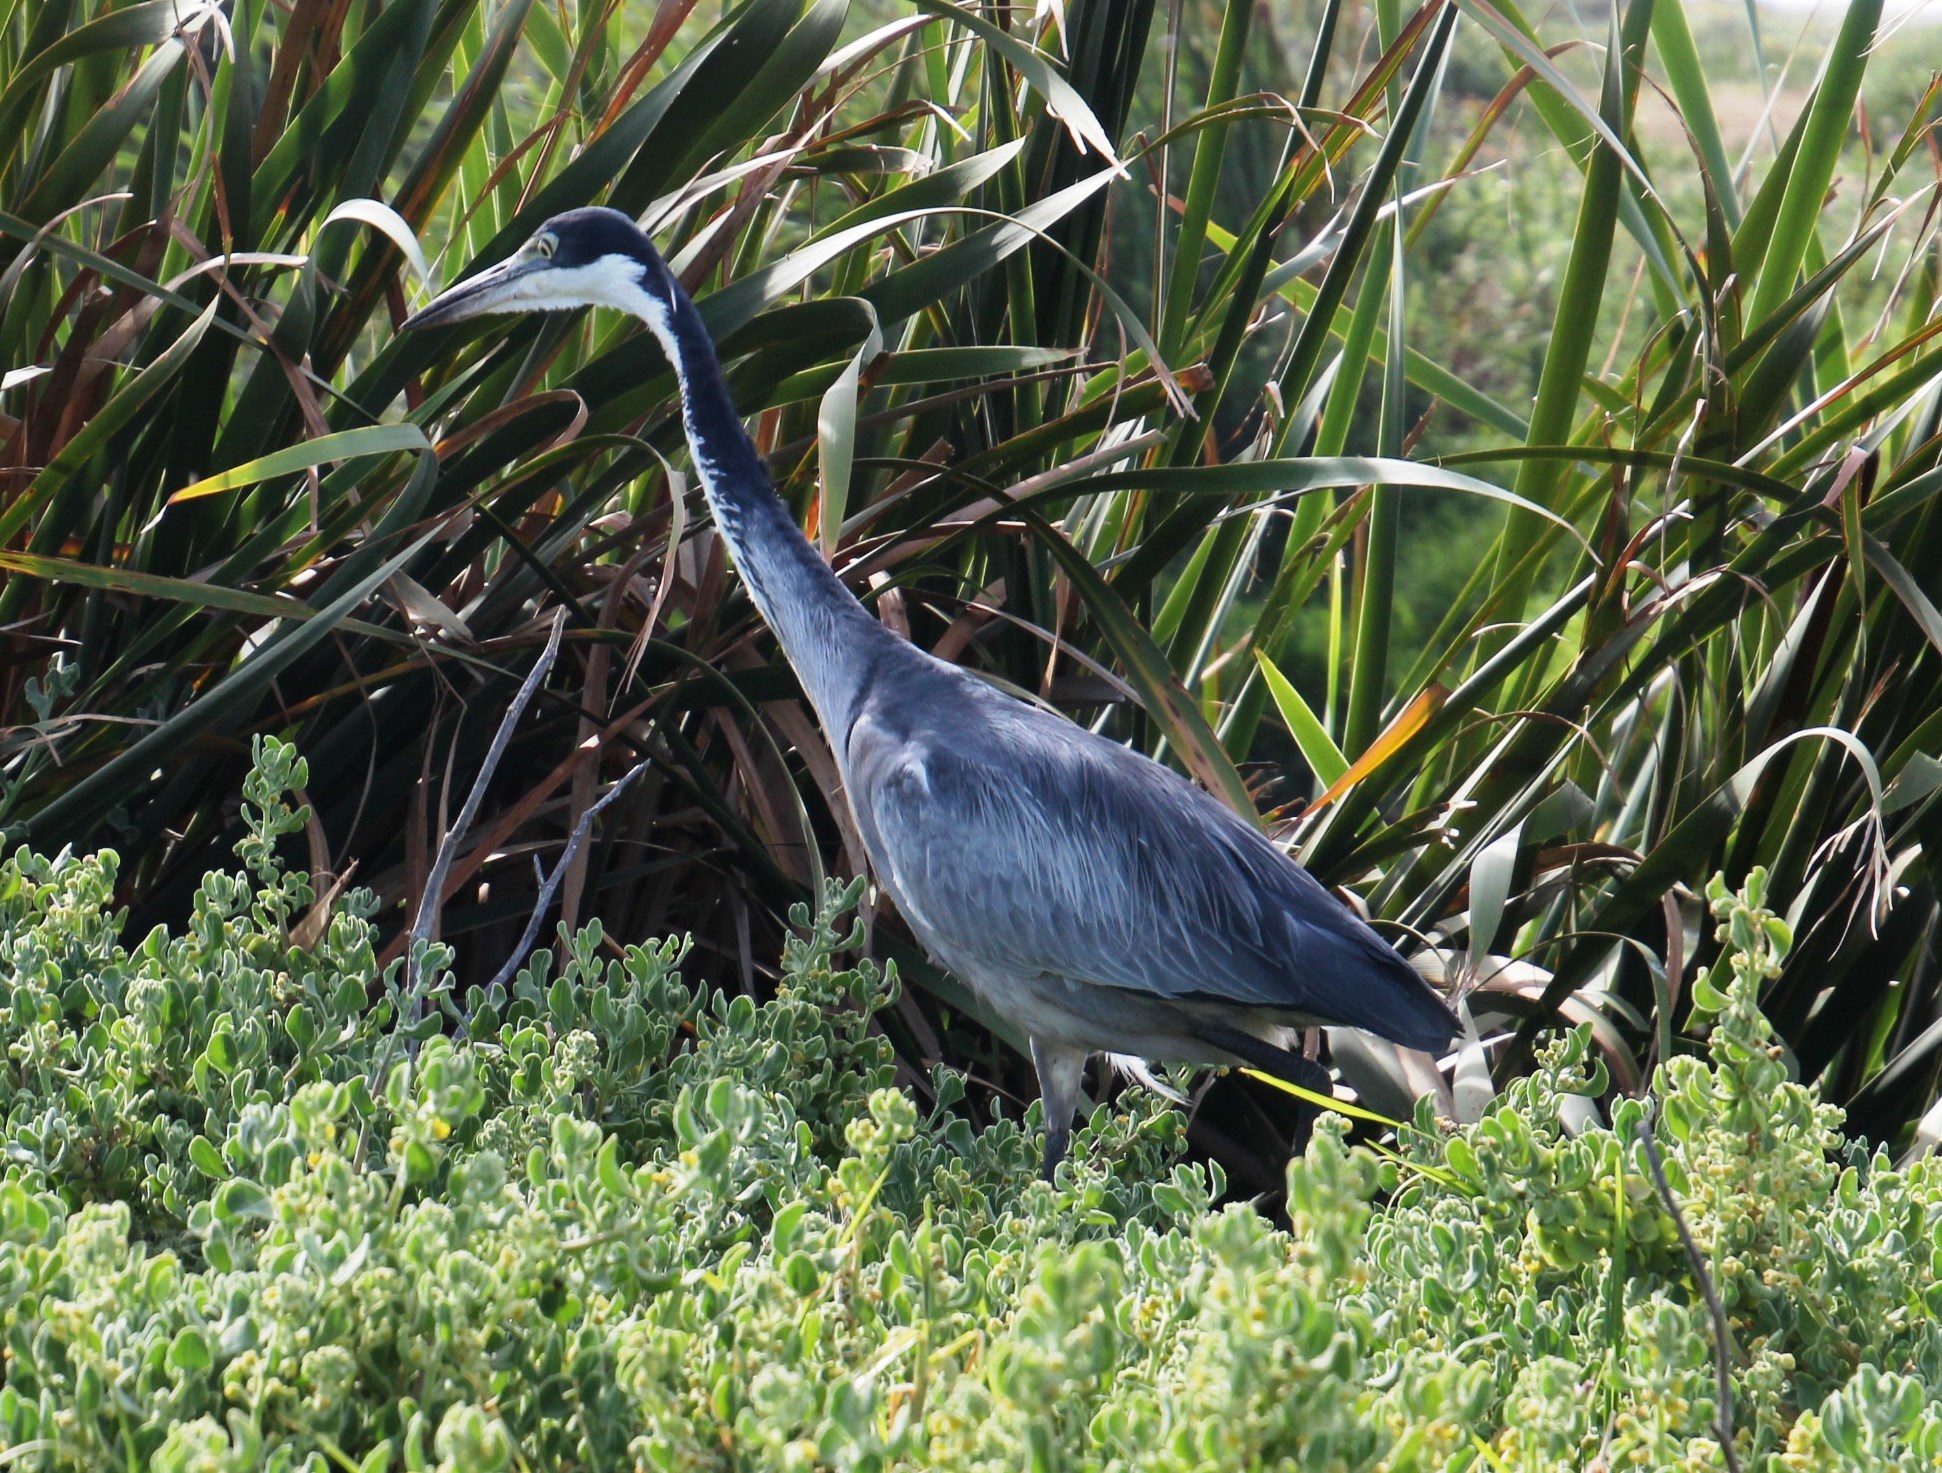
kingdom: Animalia
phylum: Chordata
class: Aves
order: Pelecaniformes
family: Ardeidae
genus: Ardea
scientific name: Ardea melanocephala
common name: Black-headed heron
